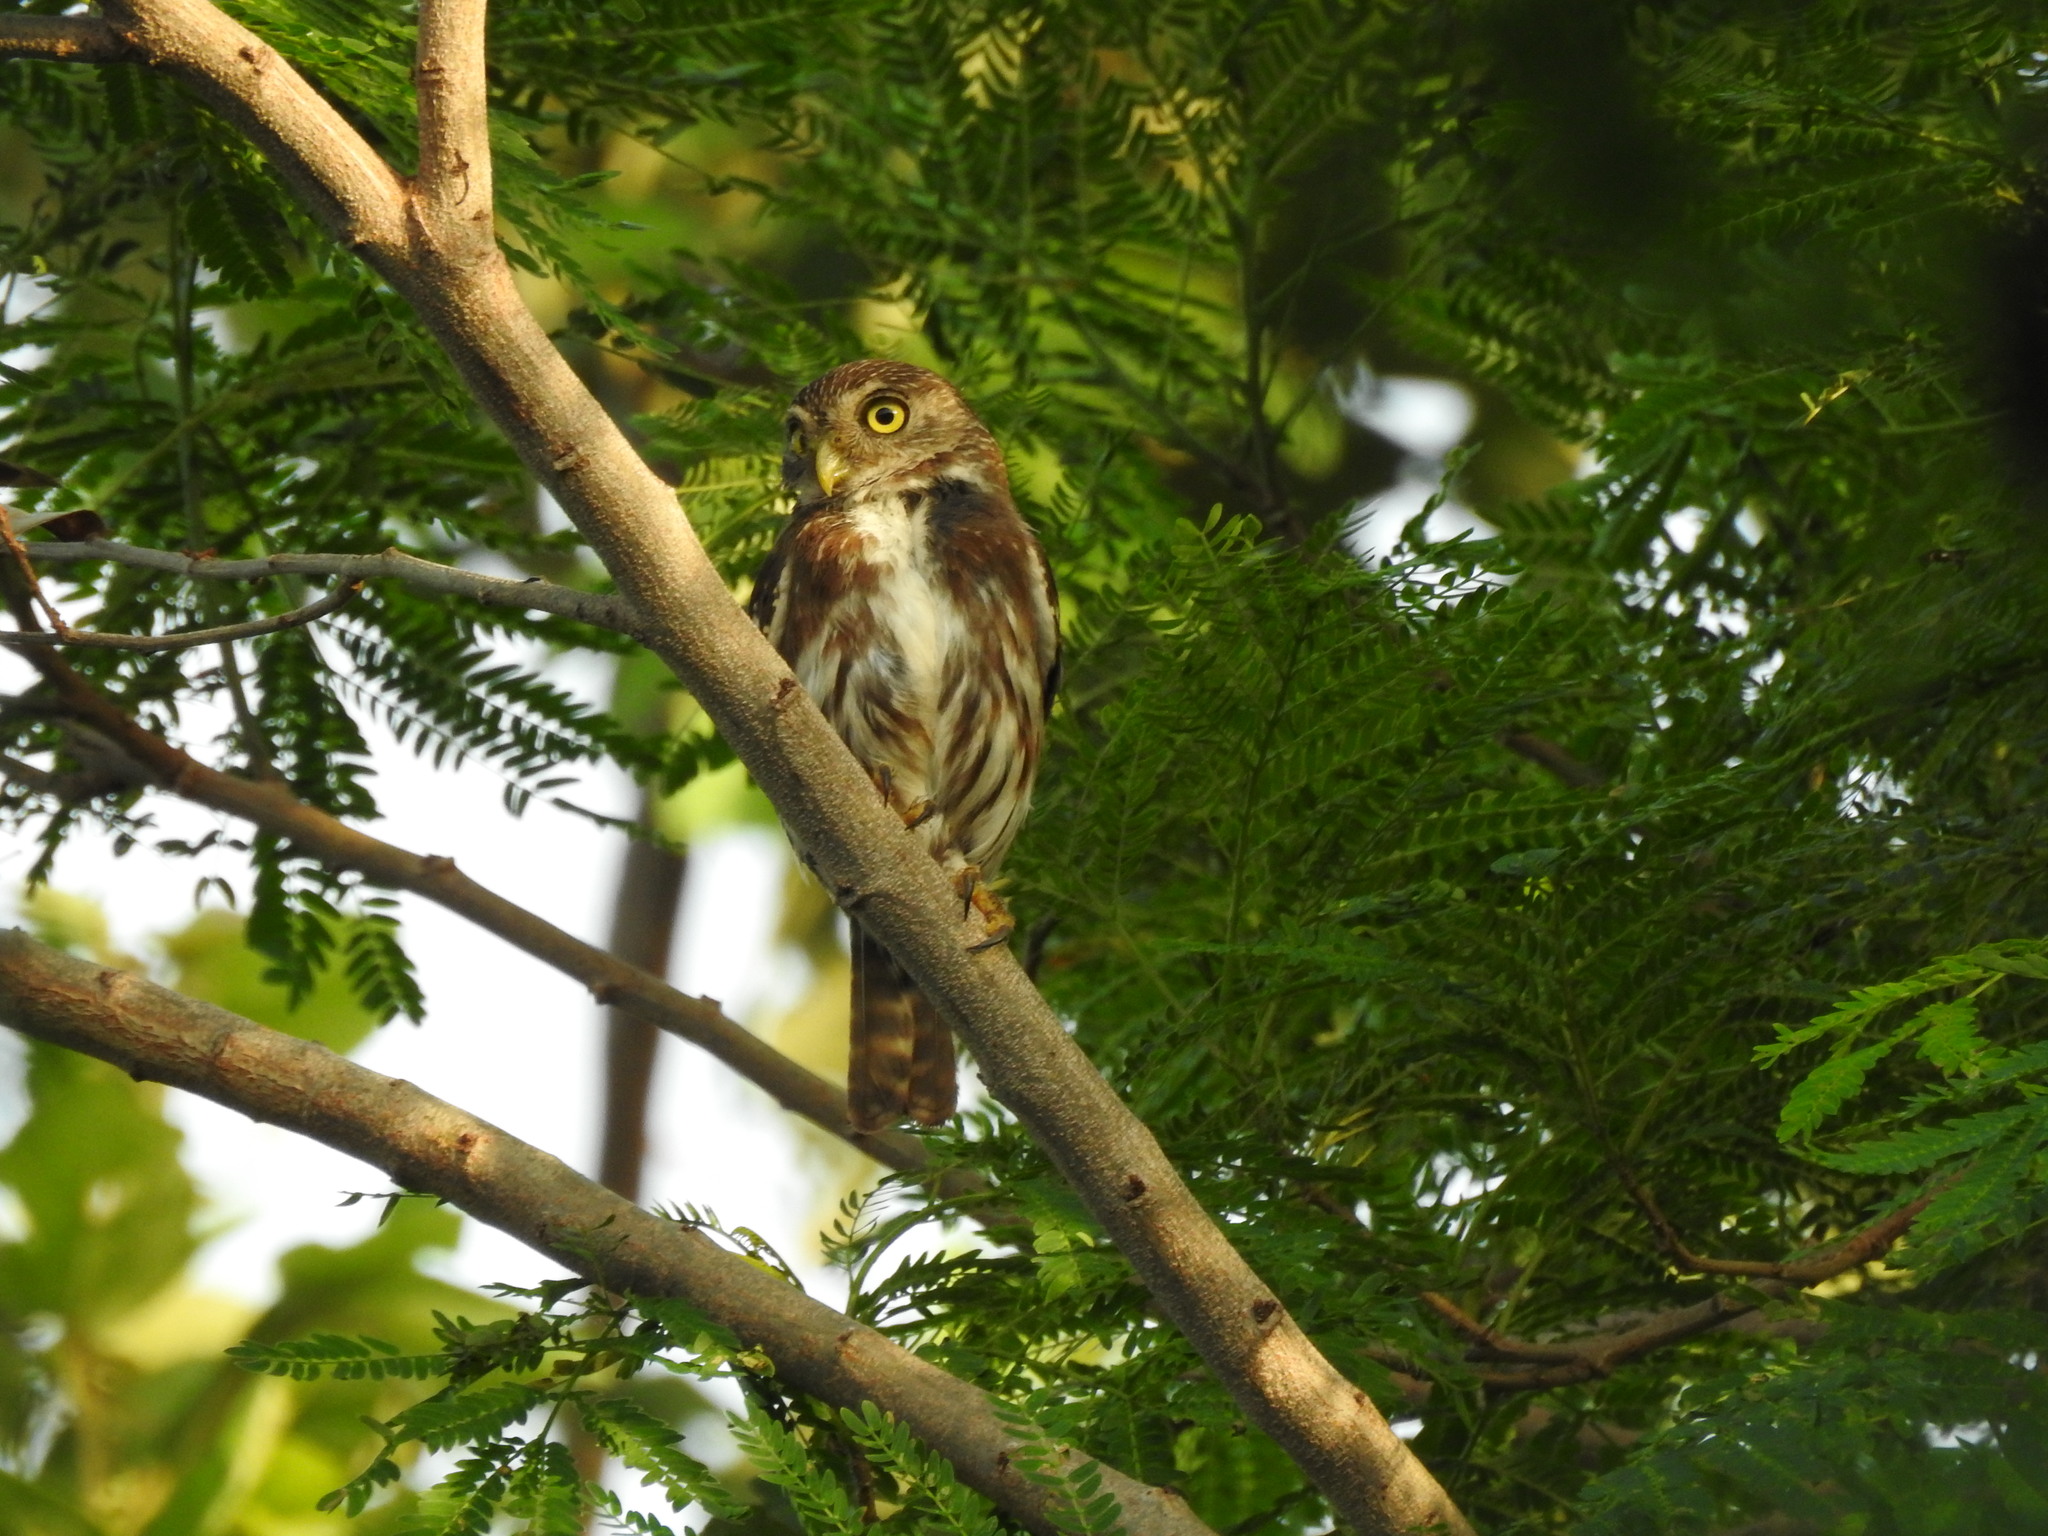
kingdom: Animalia
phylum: Chordata
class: Aves
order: Strigiformes
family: Strigidae
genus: Glaucidium
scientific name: Glaucidium brasilianum
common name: Ferruginous pygmy-owl
